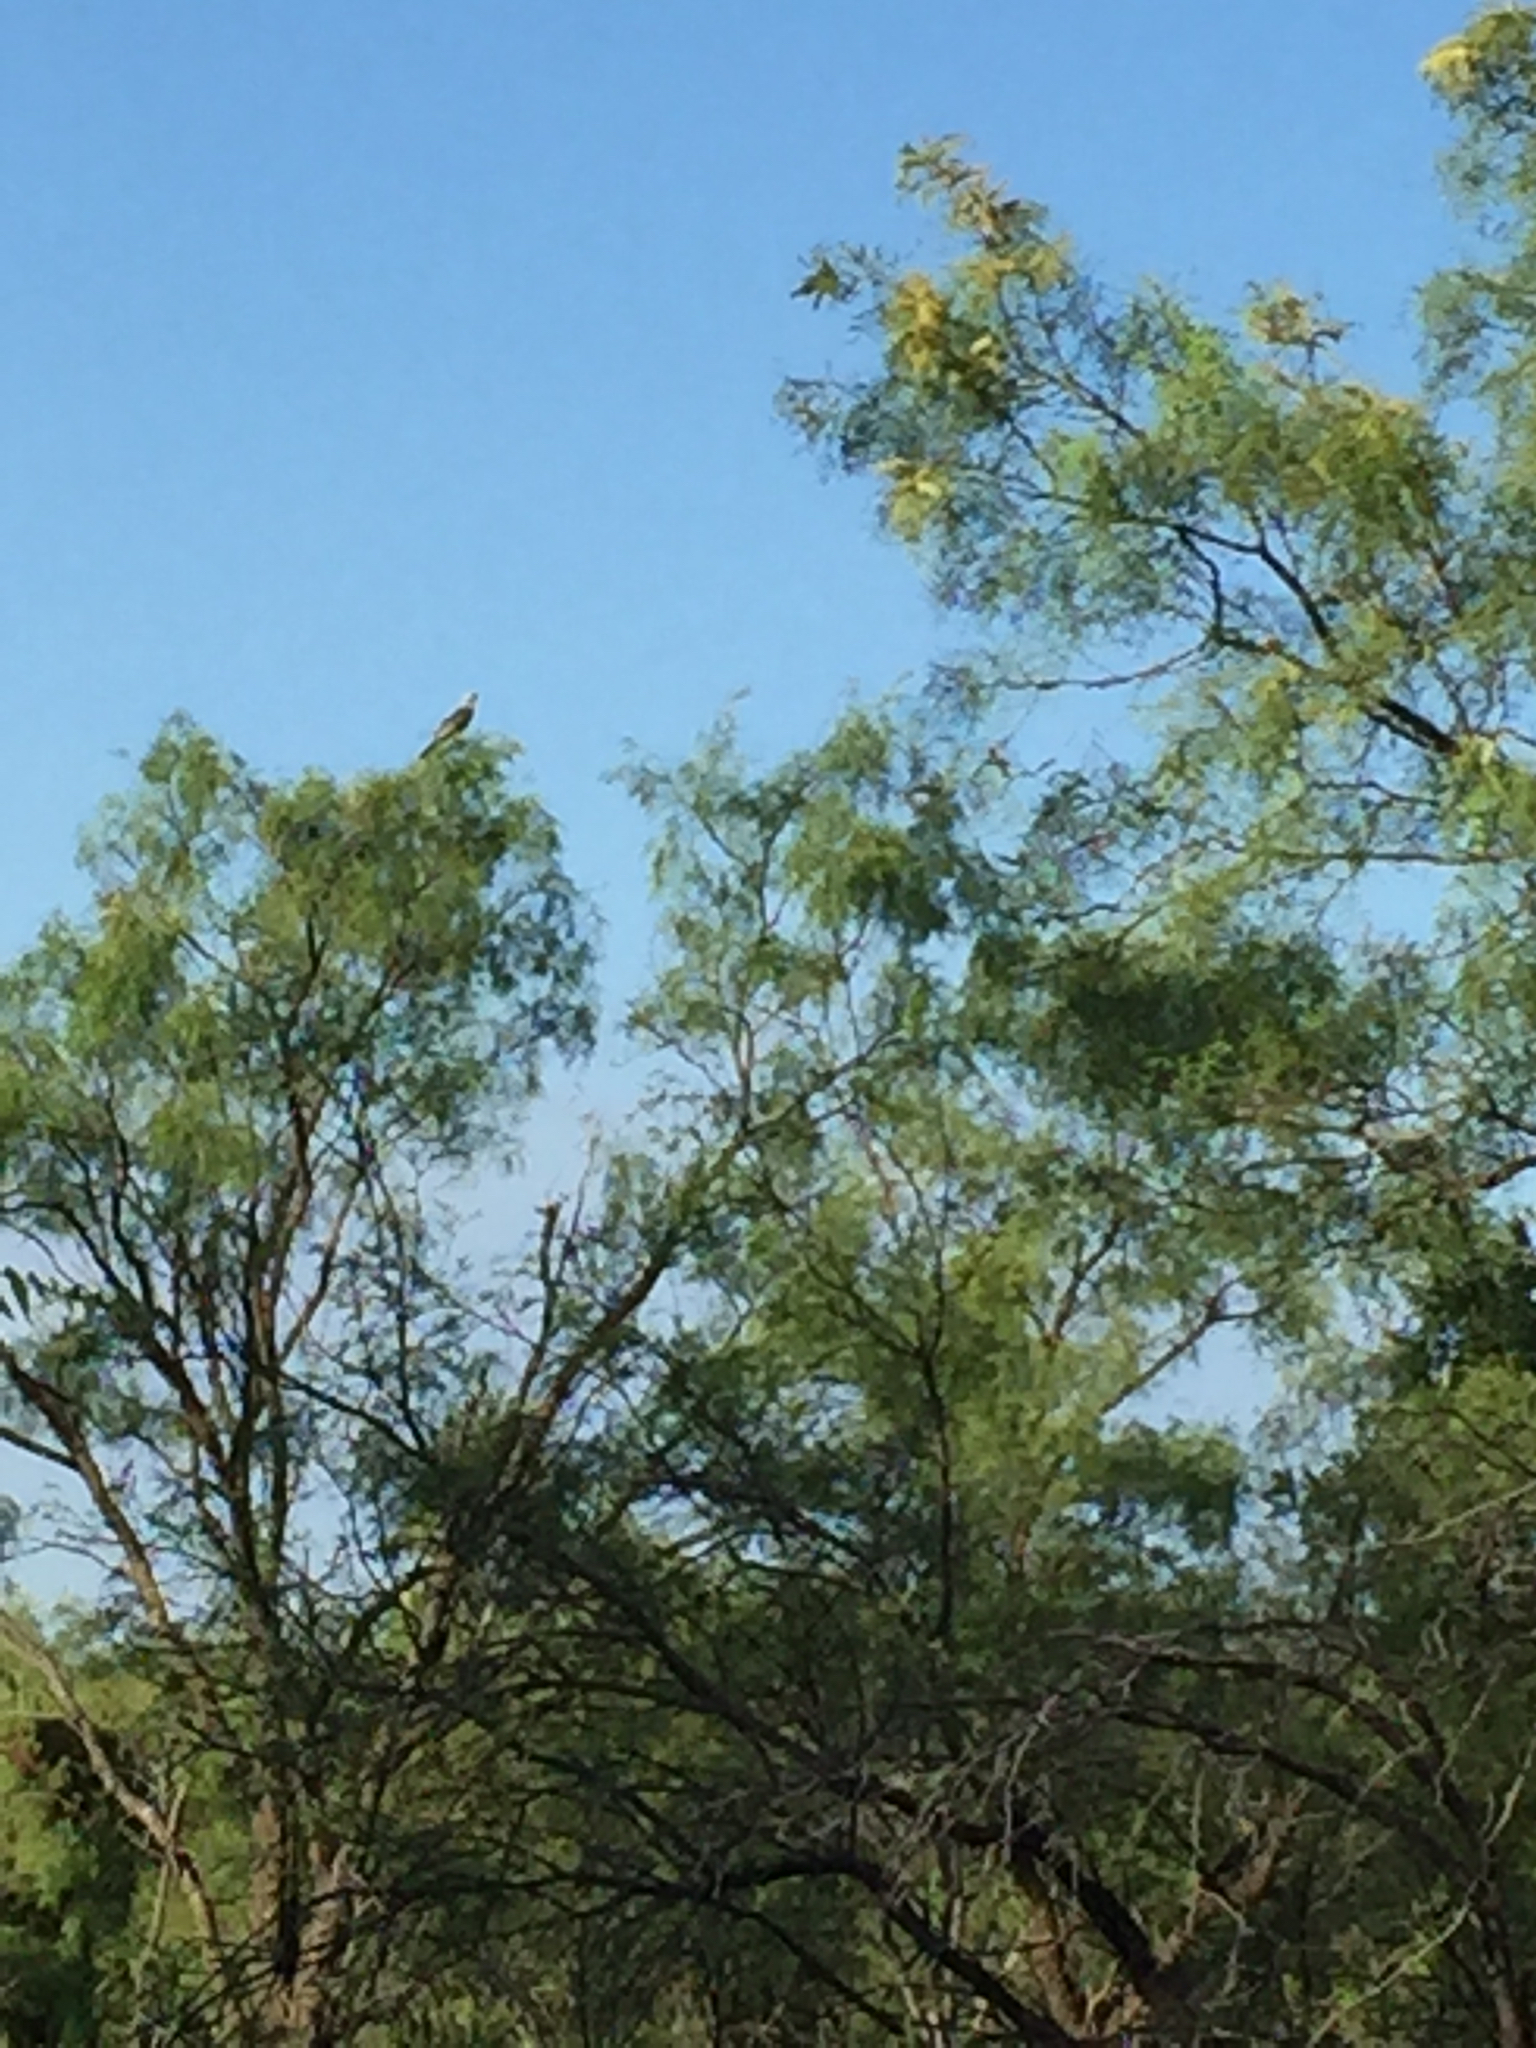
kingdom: Animalia
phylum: Chordata
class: Aves
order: Accipitriformes
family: Accipitridae
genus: Ictinia
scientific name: Ictinia mississippiensis
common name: Mississippi kite
